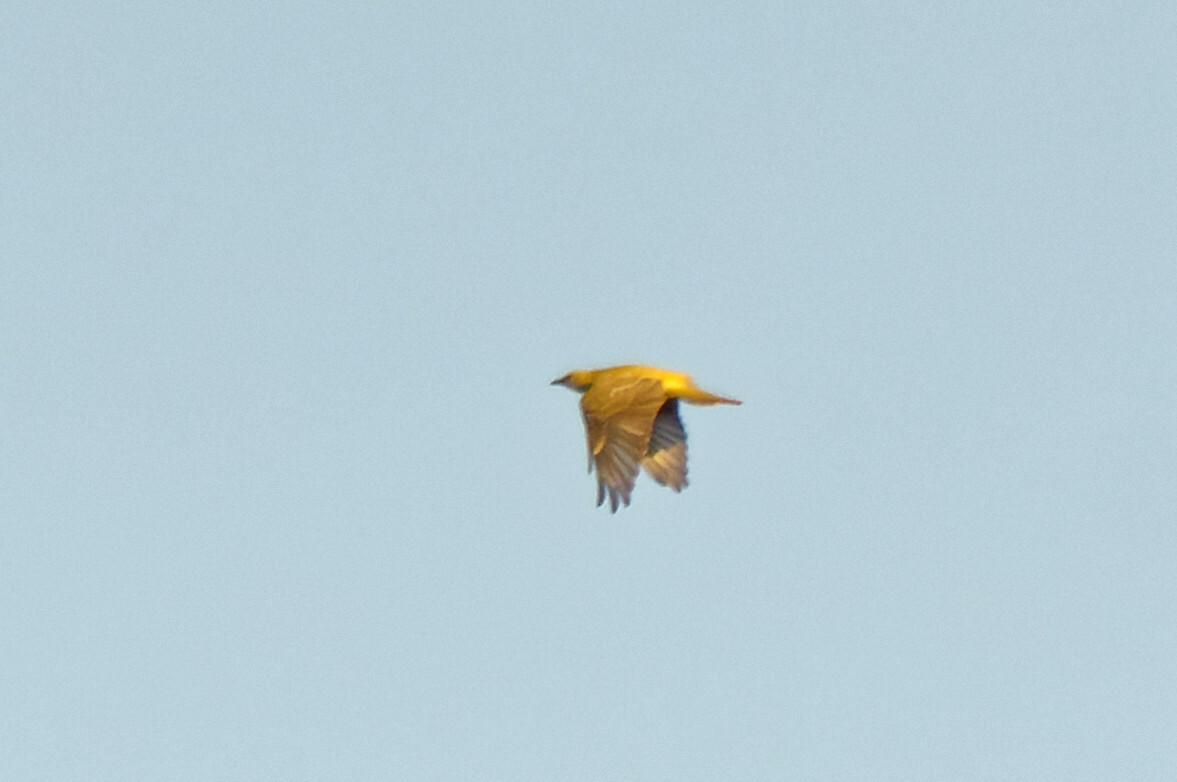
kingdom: Animalia
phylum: Chordata
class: Aves
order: Passeriformes
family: Oriolidae
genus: Oriolus
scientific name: Oriolus oriolus
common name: Eurasian golden oriole
